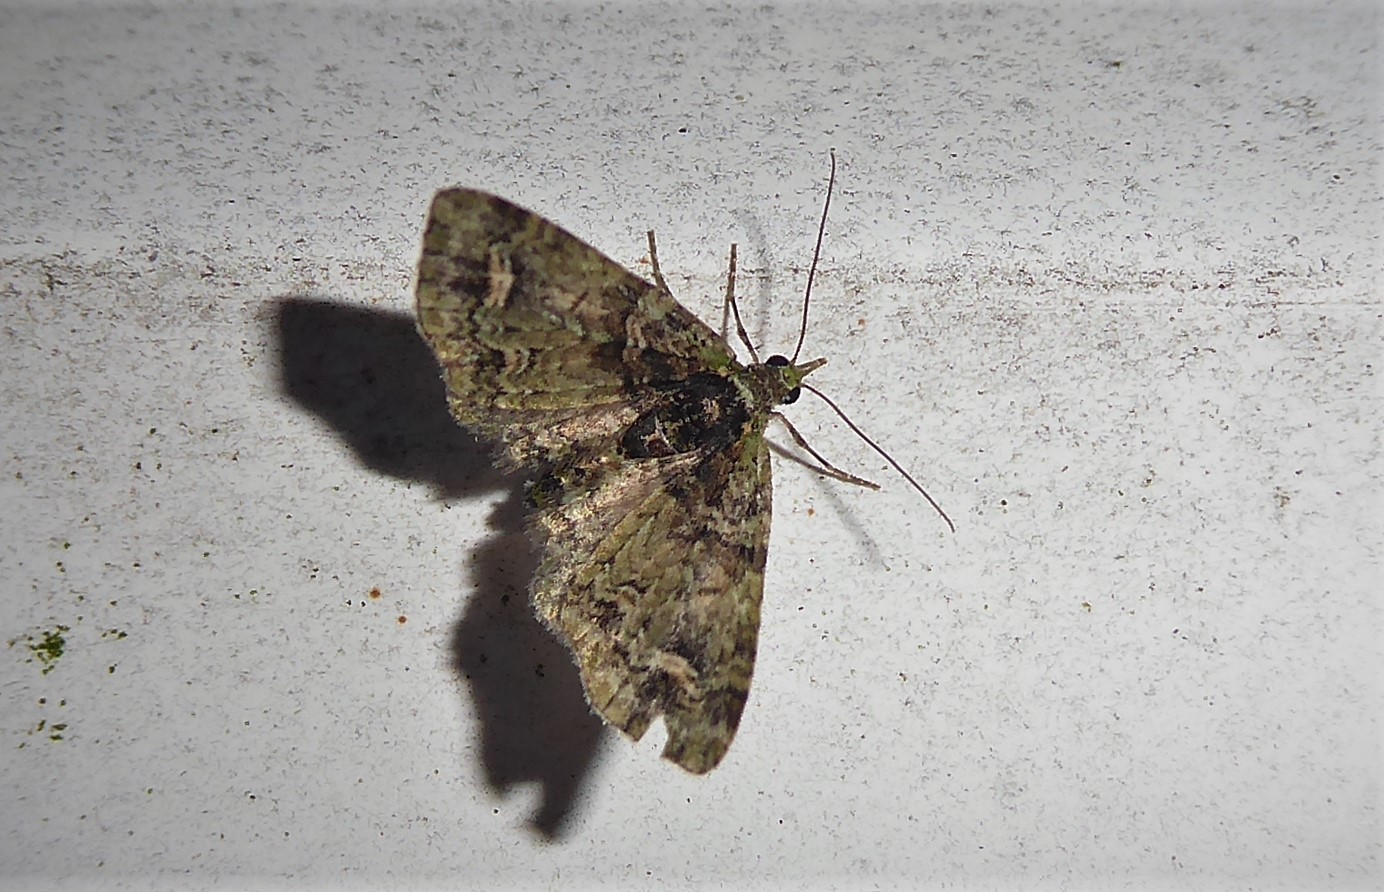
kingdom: Animalia
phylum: Arthropoda
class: Insecta
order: Lepidoptera
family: Geometridae
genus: Idaea
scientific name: Idaea mutanda
